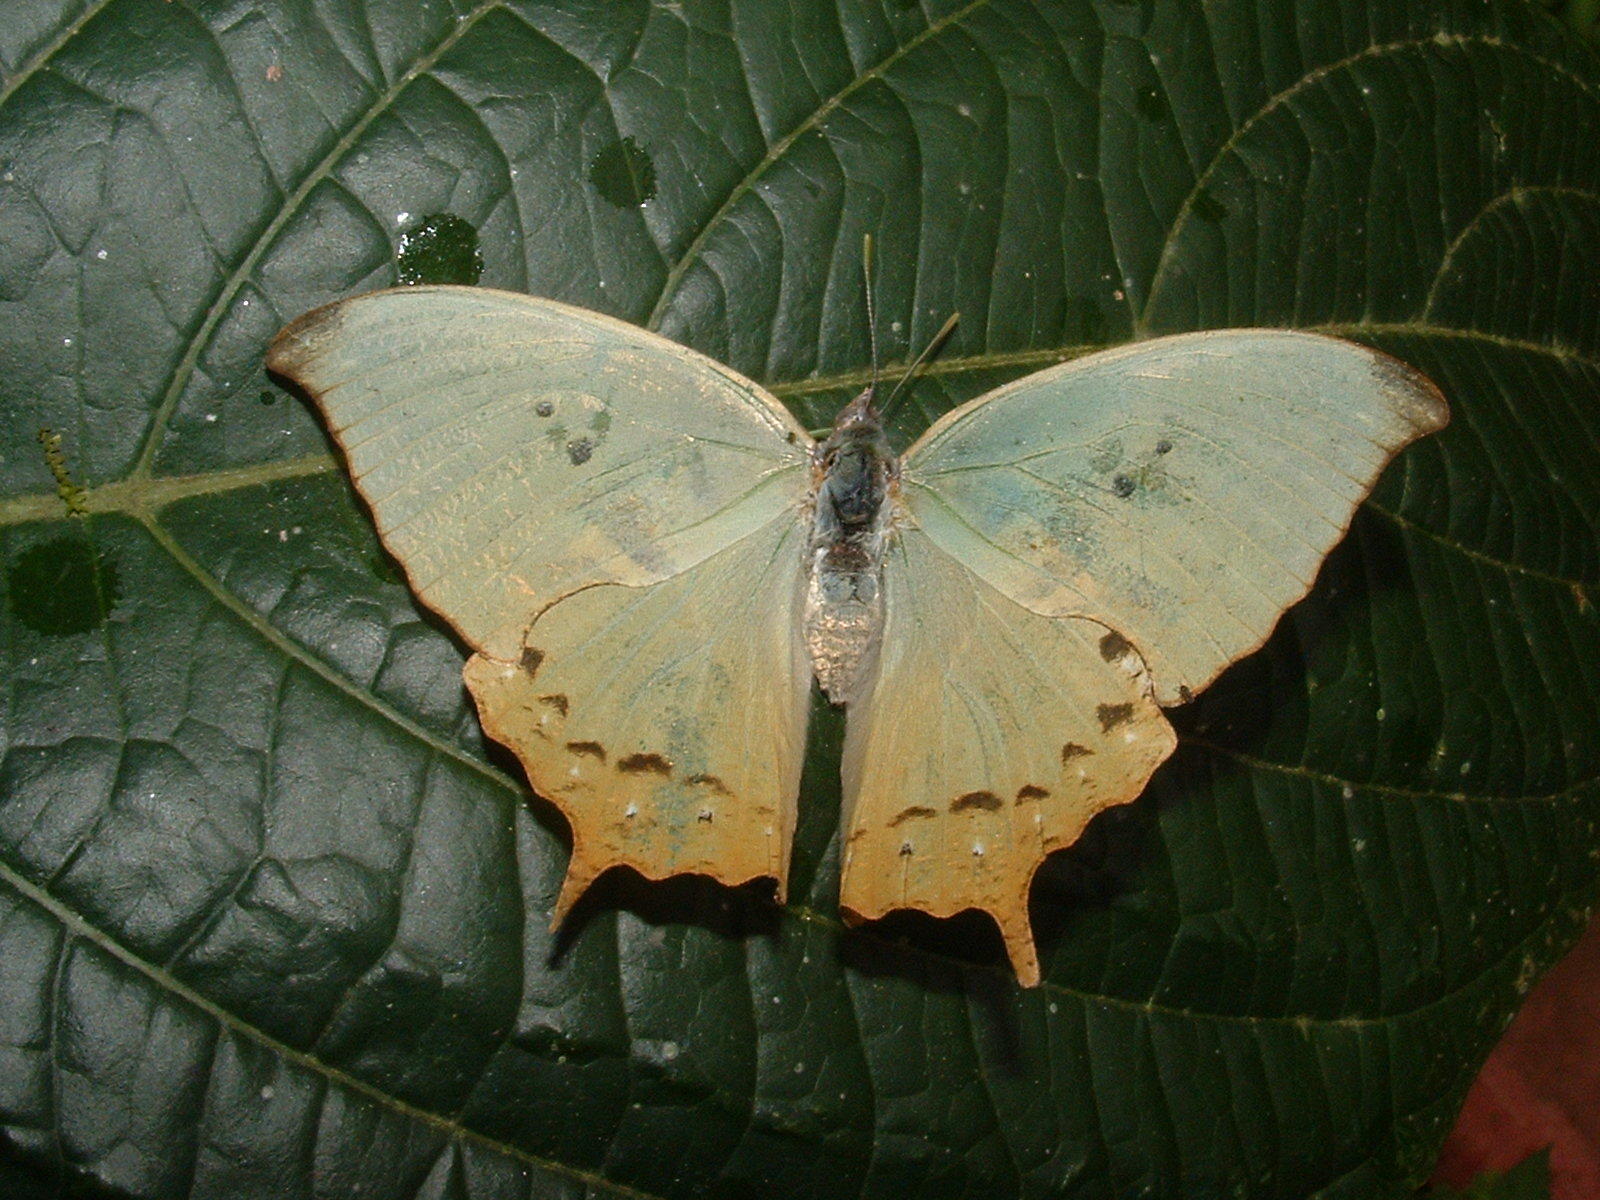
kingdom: Animalia
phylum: Arthropoda
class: Insecta
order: Lepidoptera
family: Nymphalidae
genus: Zaretis
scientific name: Zaretis callidryas
